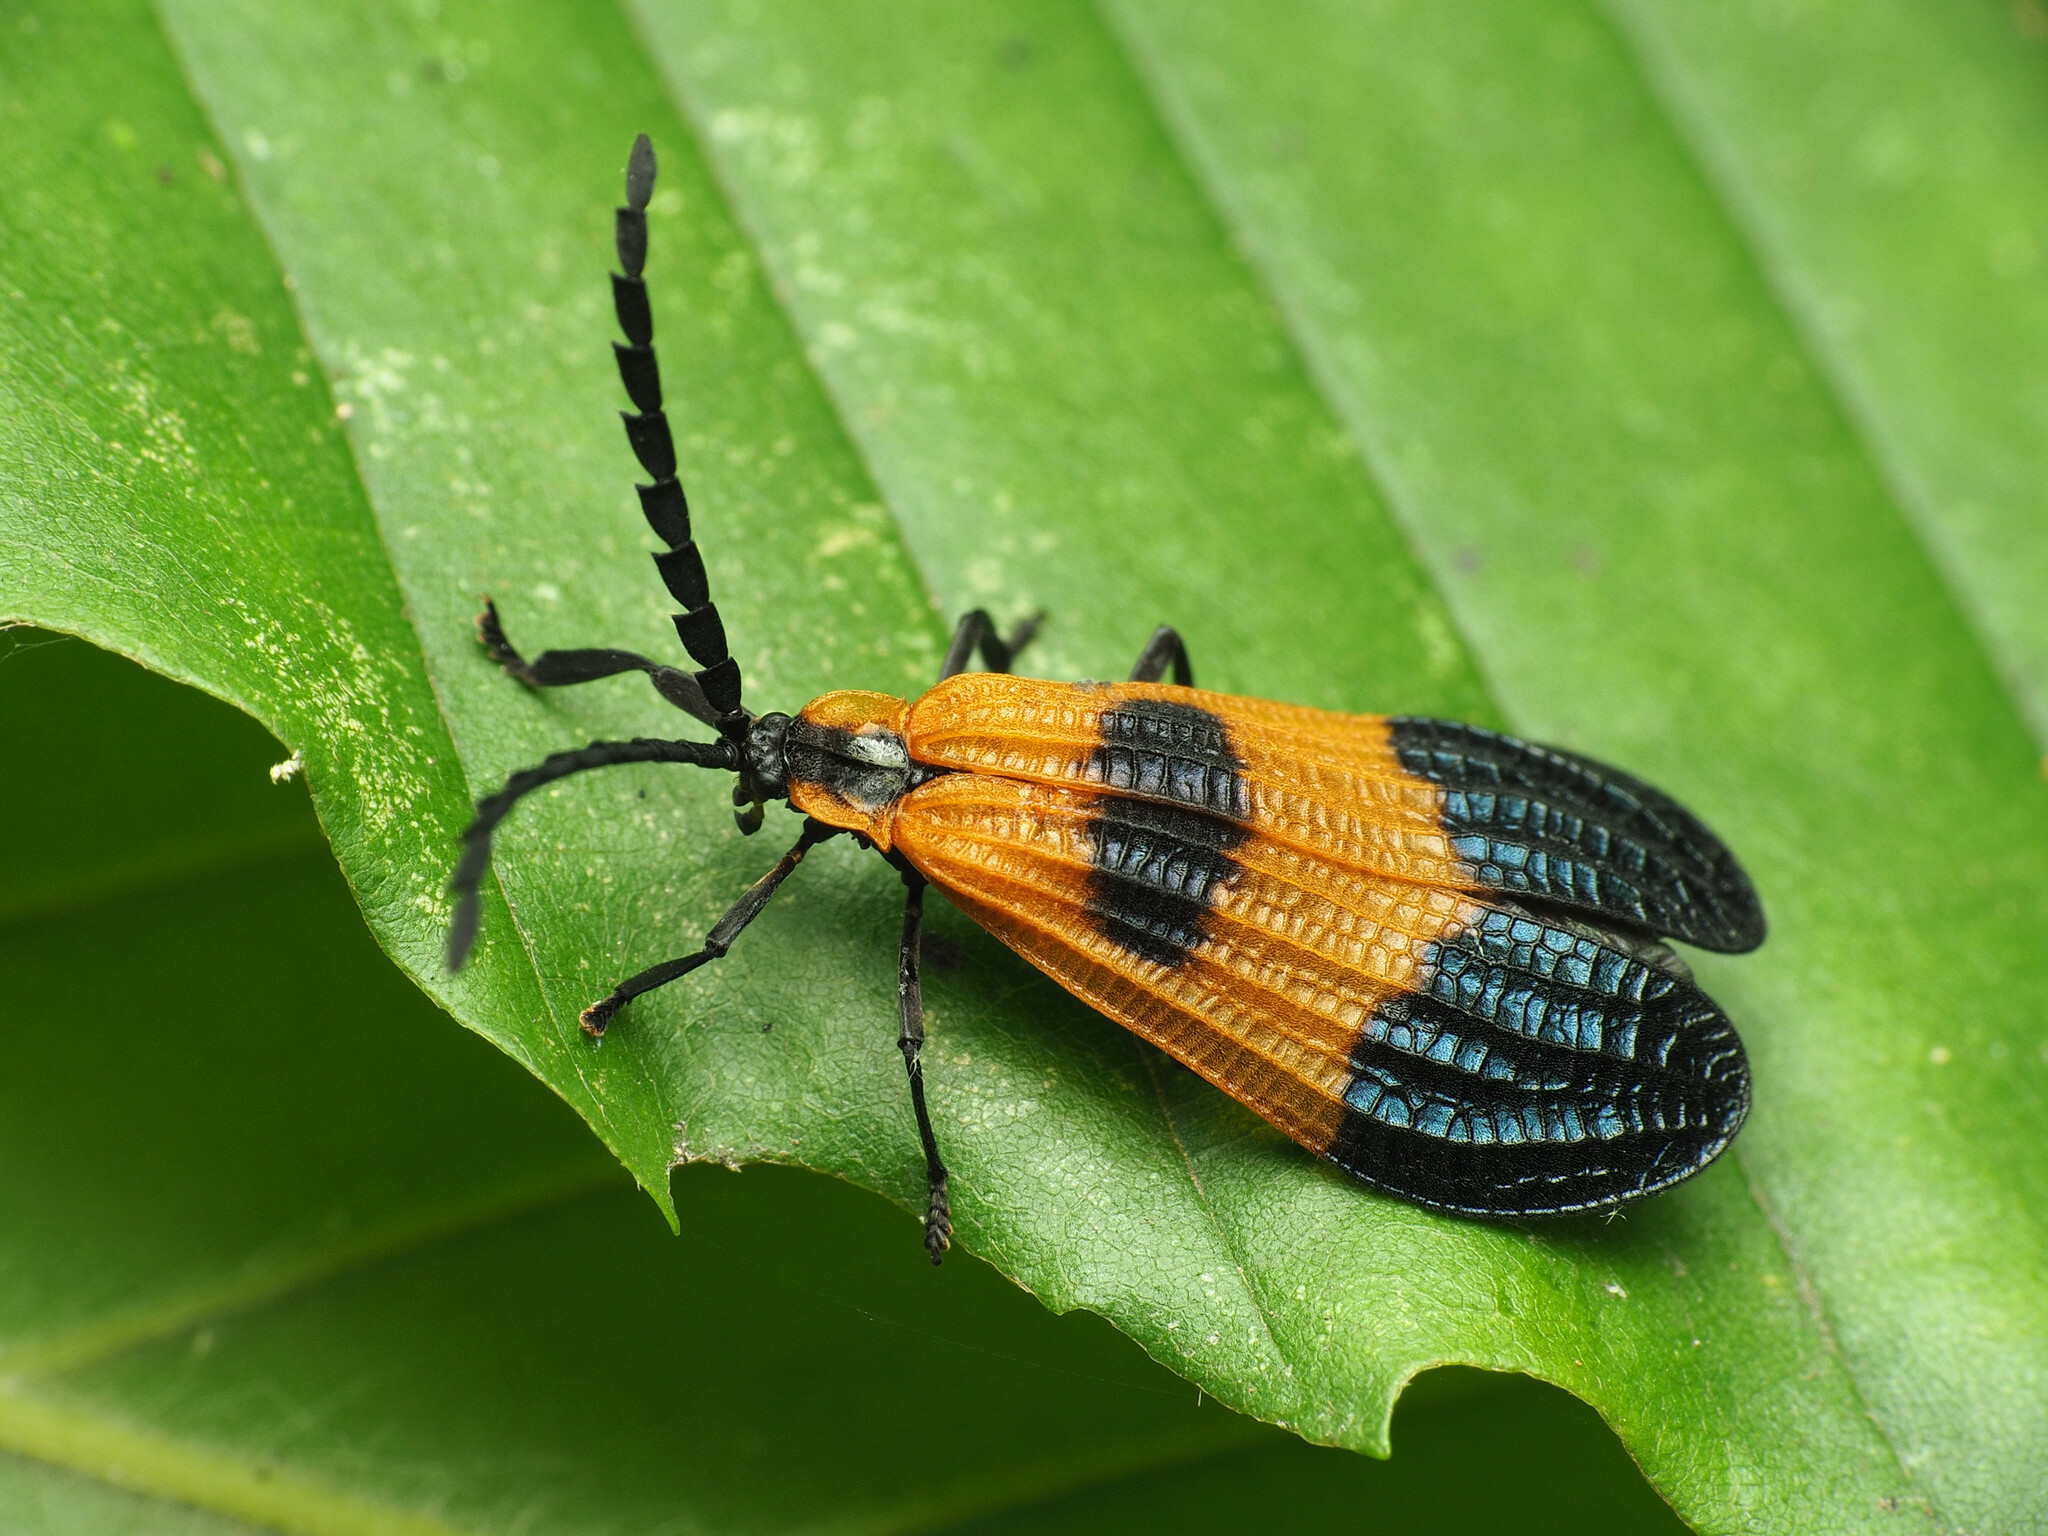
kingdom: Animalia
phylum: Arthropoda
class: Insecta
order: Coleoptera
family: Lycidae
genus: Calopteron
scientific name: Calopteron terminale
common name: End band net-winged beetle
